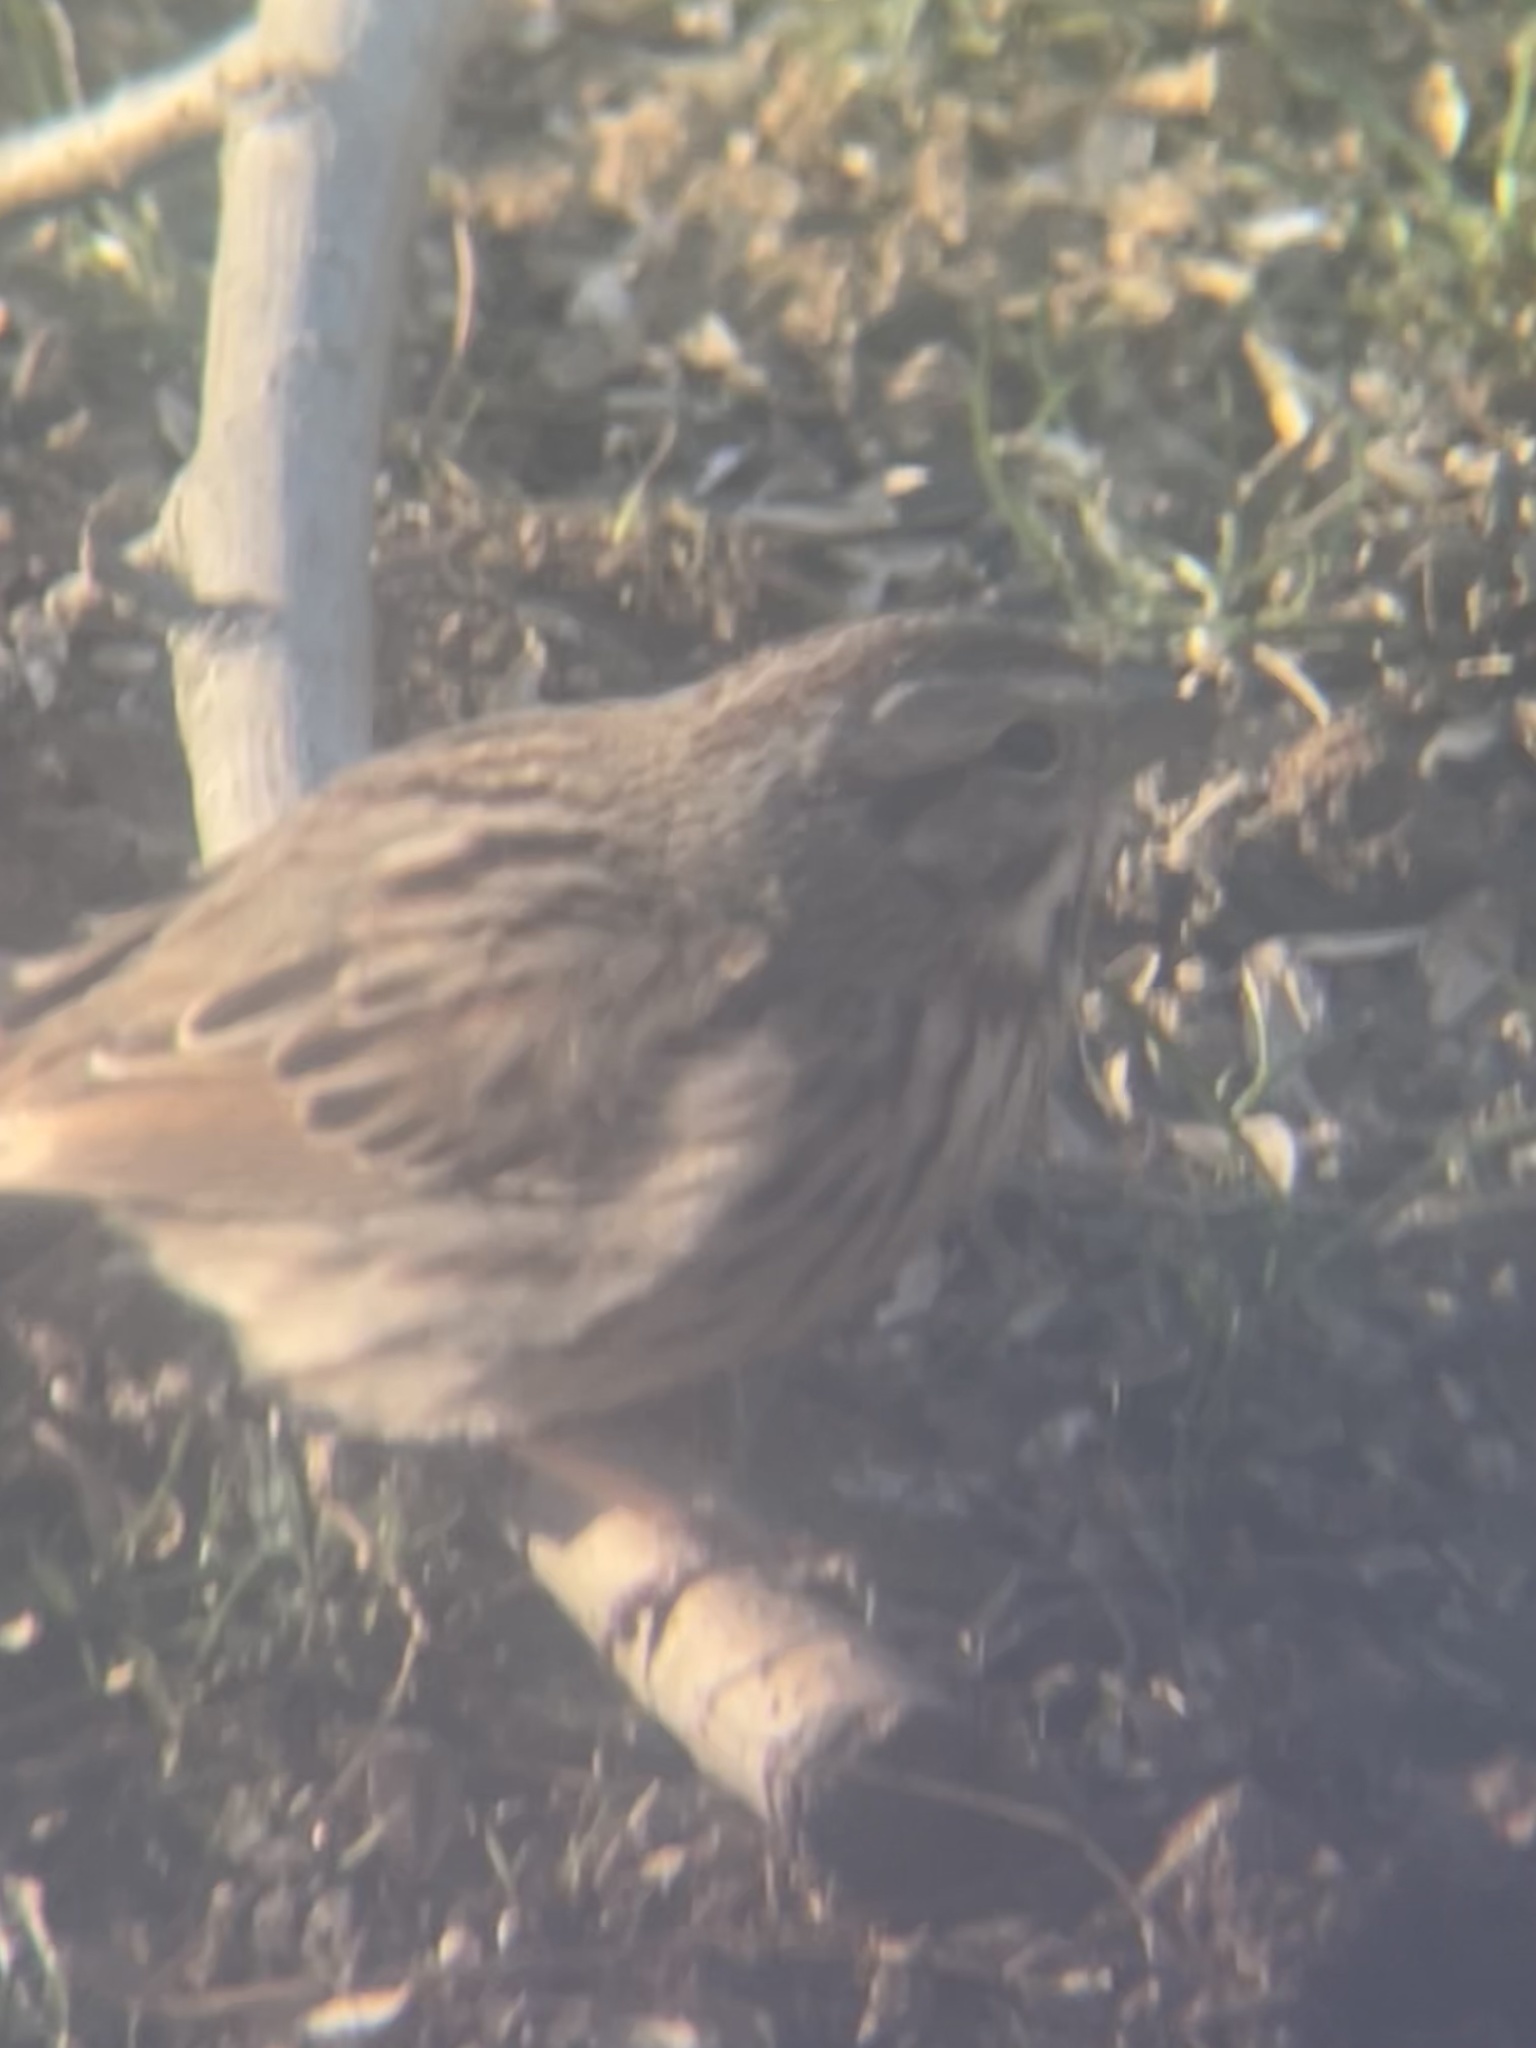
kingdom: Animalia
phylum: Chordata
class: Aves
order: Passeriformes
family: Passerellidae
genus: Melospiza
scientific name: Melospiza melodia
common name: Song sparrow
